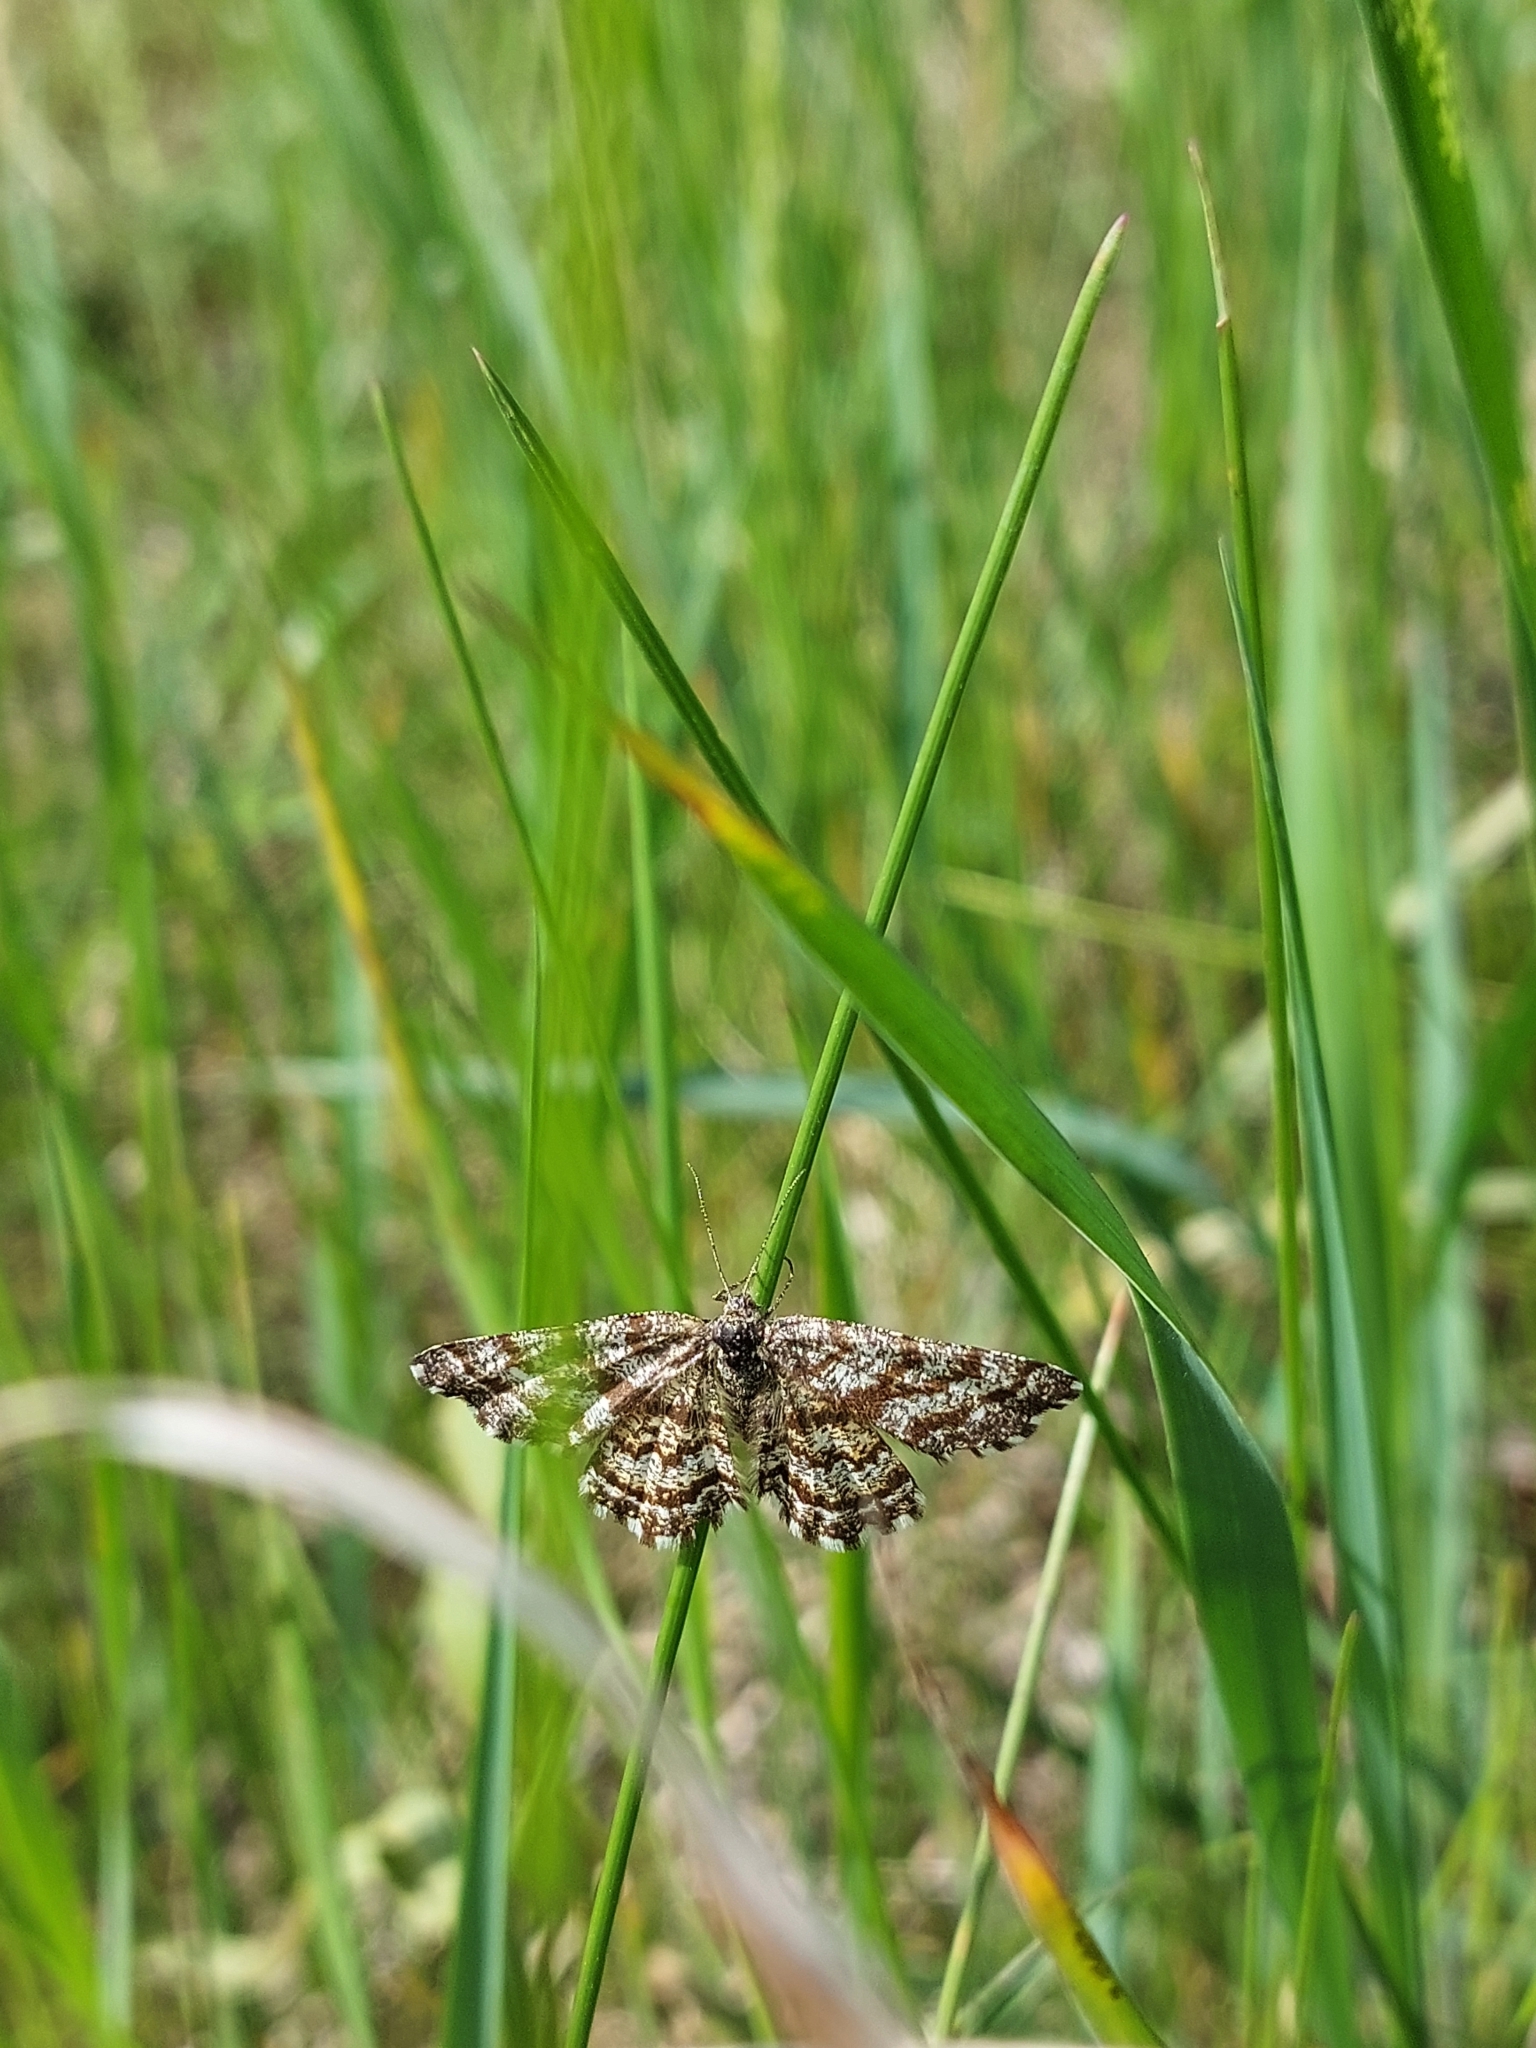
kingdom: Animalia
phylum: Arthropoda
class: Insecta
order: Lepidoptera
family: Geometridae
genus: Ematurga
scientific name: Ematurga atomaria
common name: Common heath
